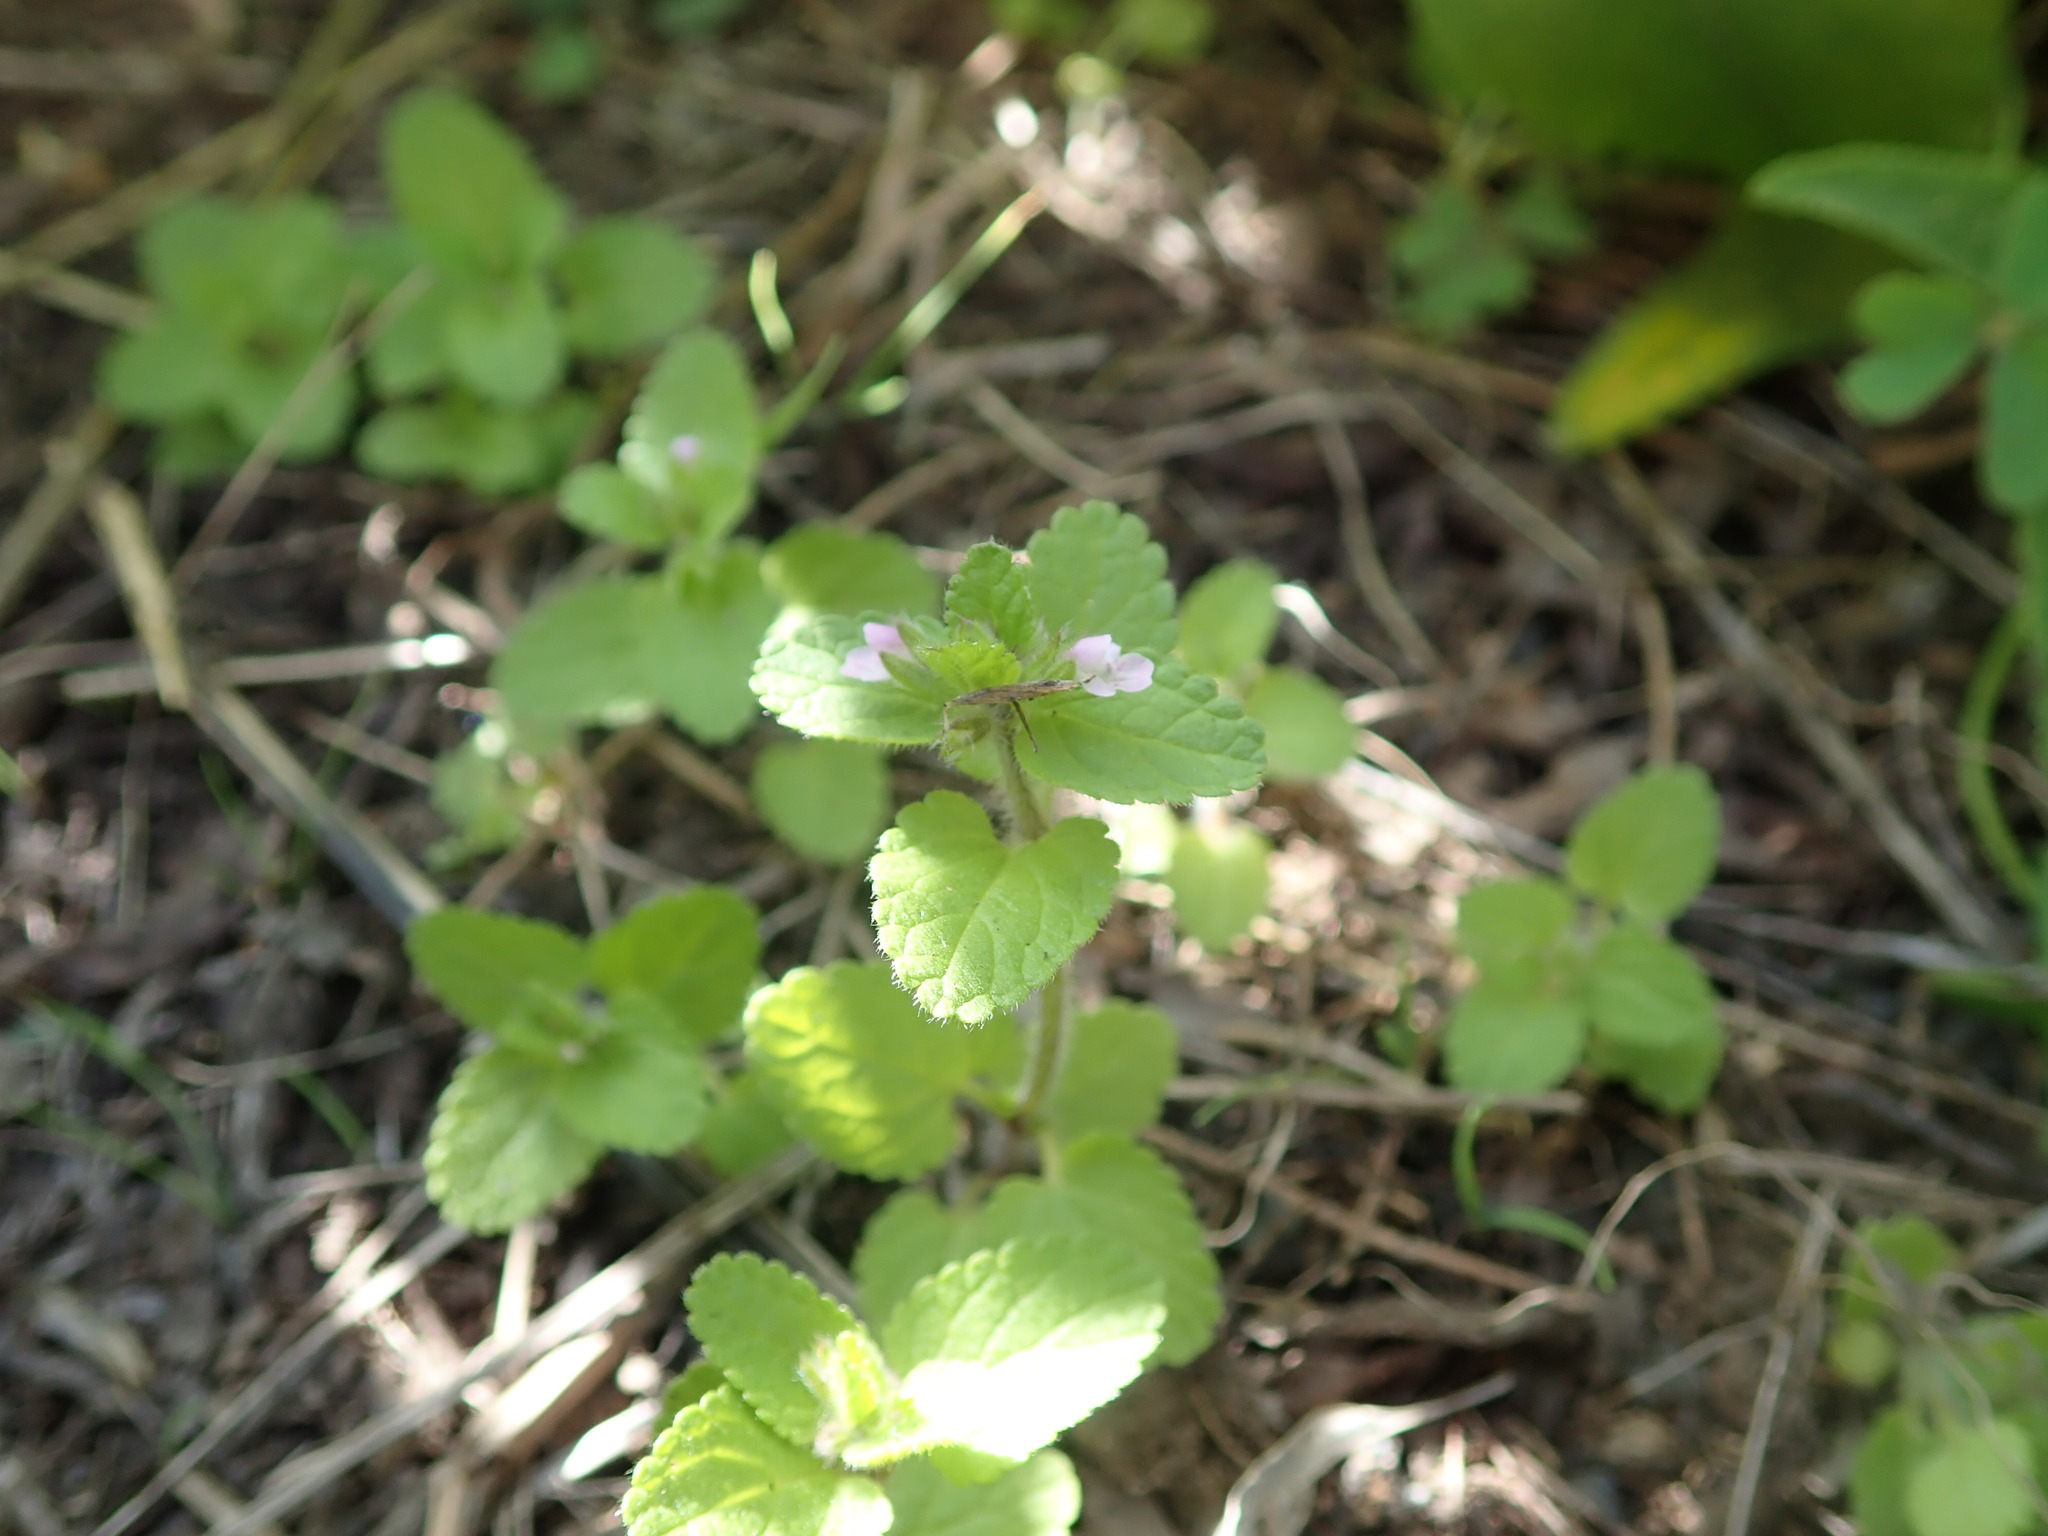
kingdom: Plantae
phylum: Tracheophyta
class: Magnoliopsida
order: Lamiales
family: Lamiaceae
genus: Stachys
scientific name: Stachys arvensis
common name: Field woundwort
